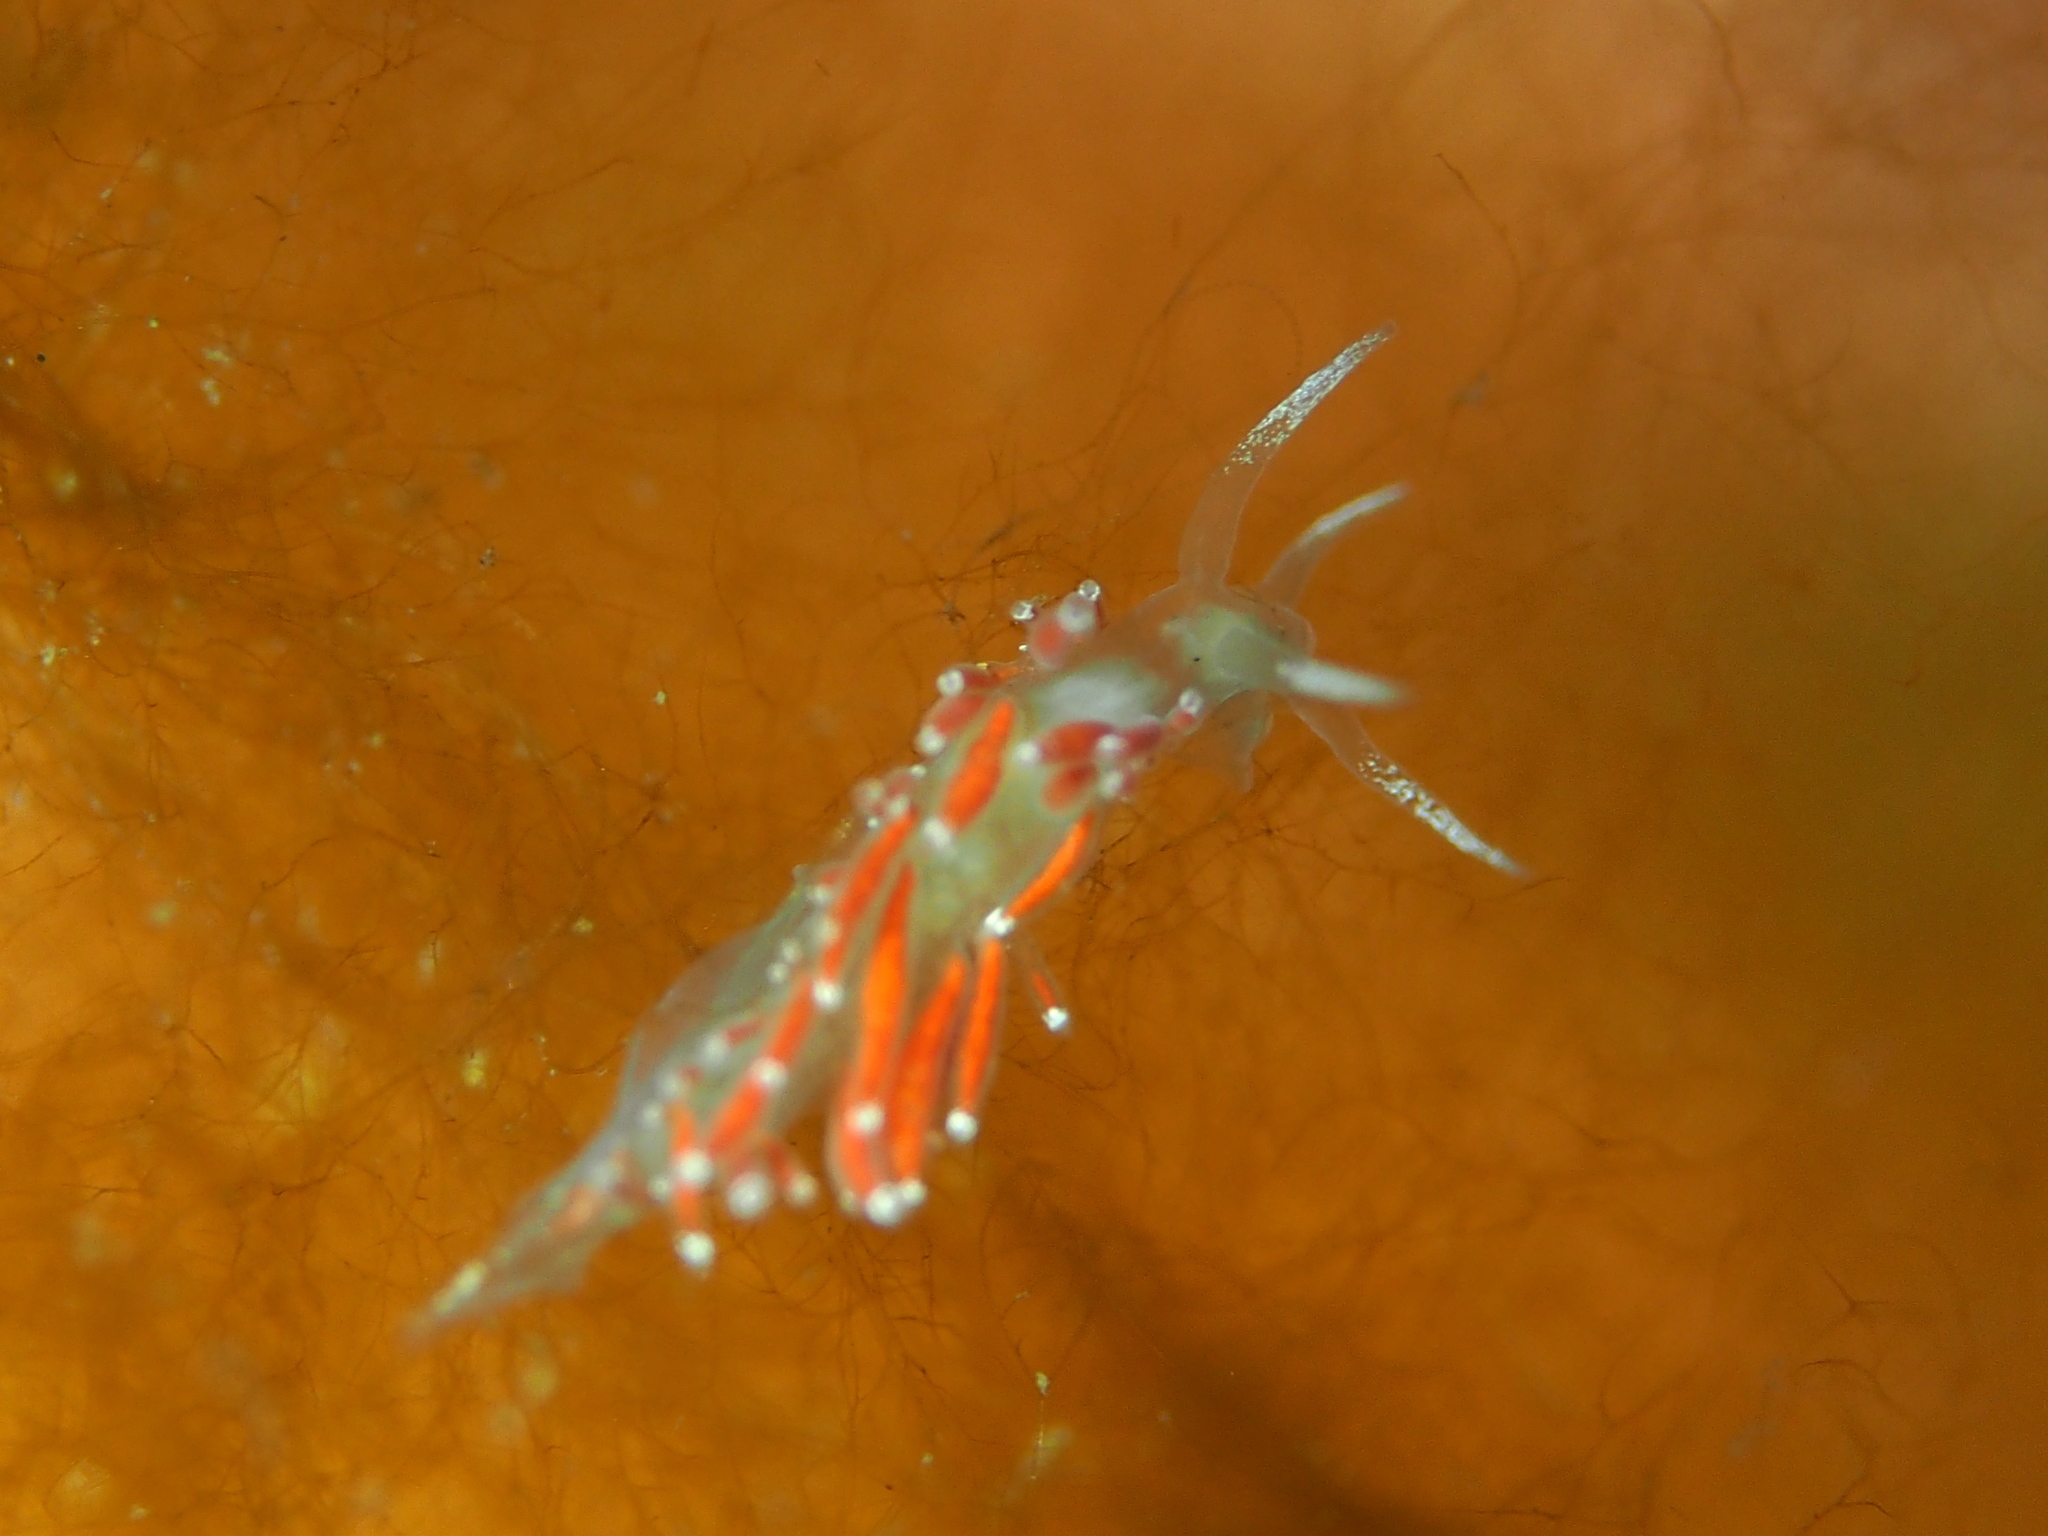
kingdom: Animalia
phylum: Mollusca
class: Gastropoda
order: Nudibranchia
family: Coryphellidae
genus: Coryphella
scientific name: Coryphella gracilis
